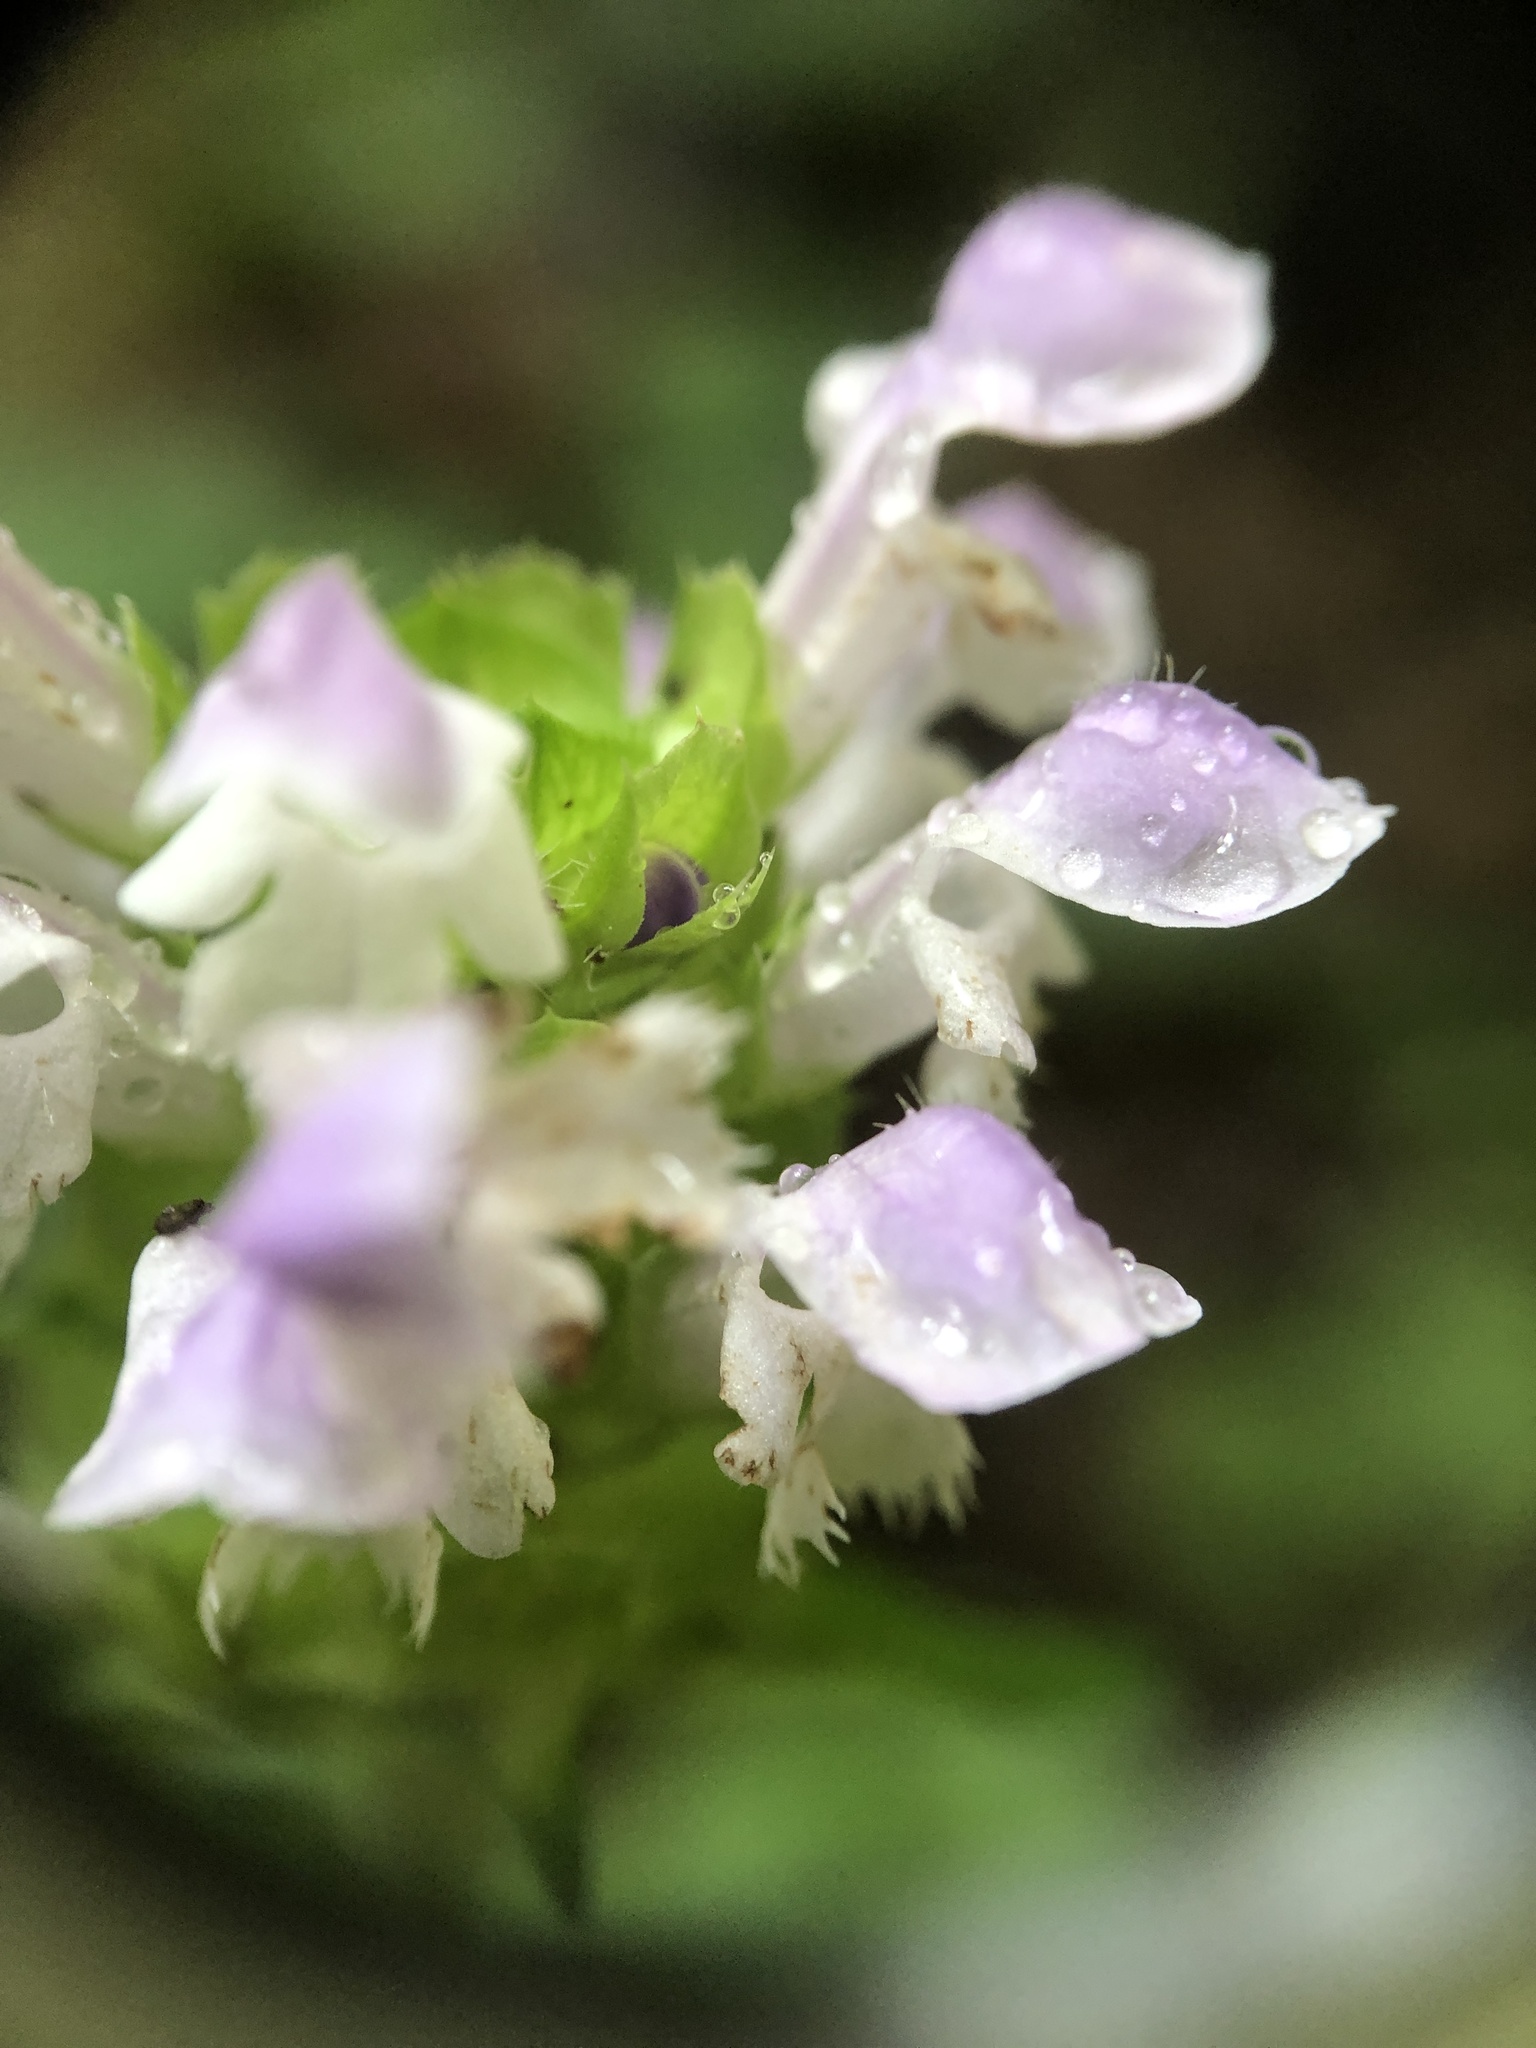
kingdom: Plantae
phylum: Tracheophyta
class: Magnoliopsida
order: Lamiales
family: Lamiaceae
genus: Prunella
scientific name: Prunella vulgaris
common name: Heal-all
